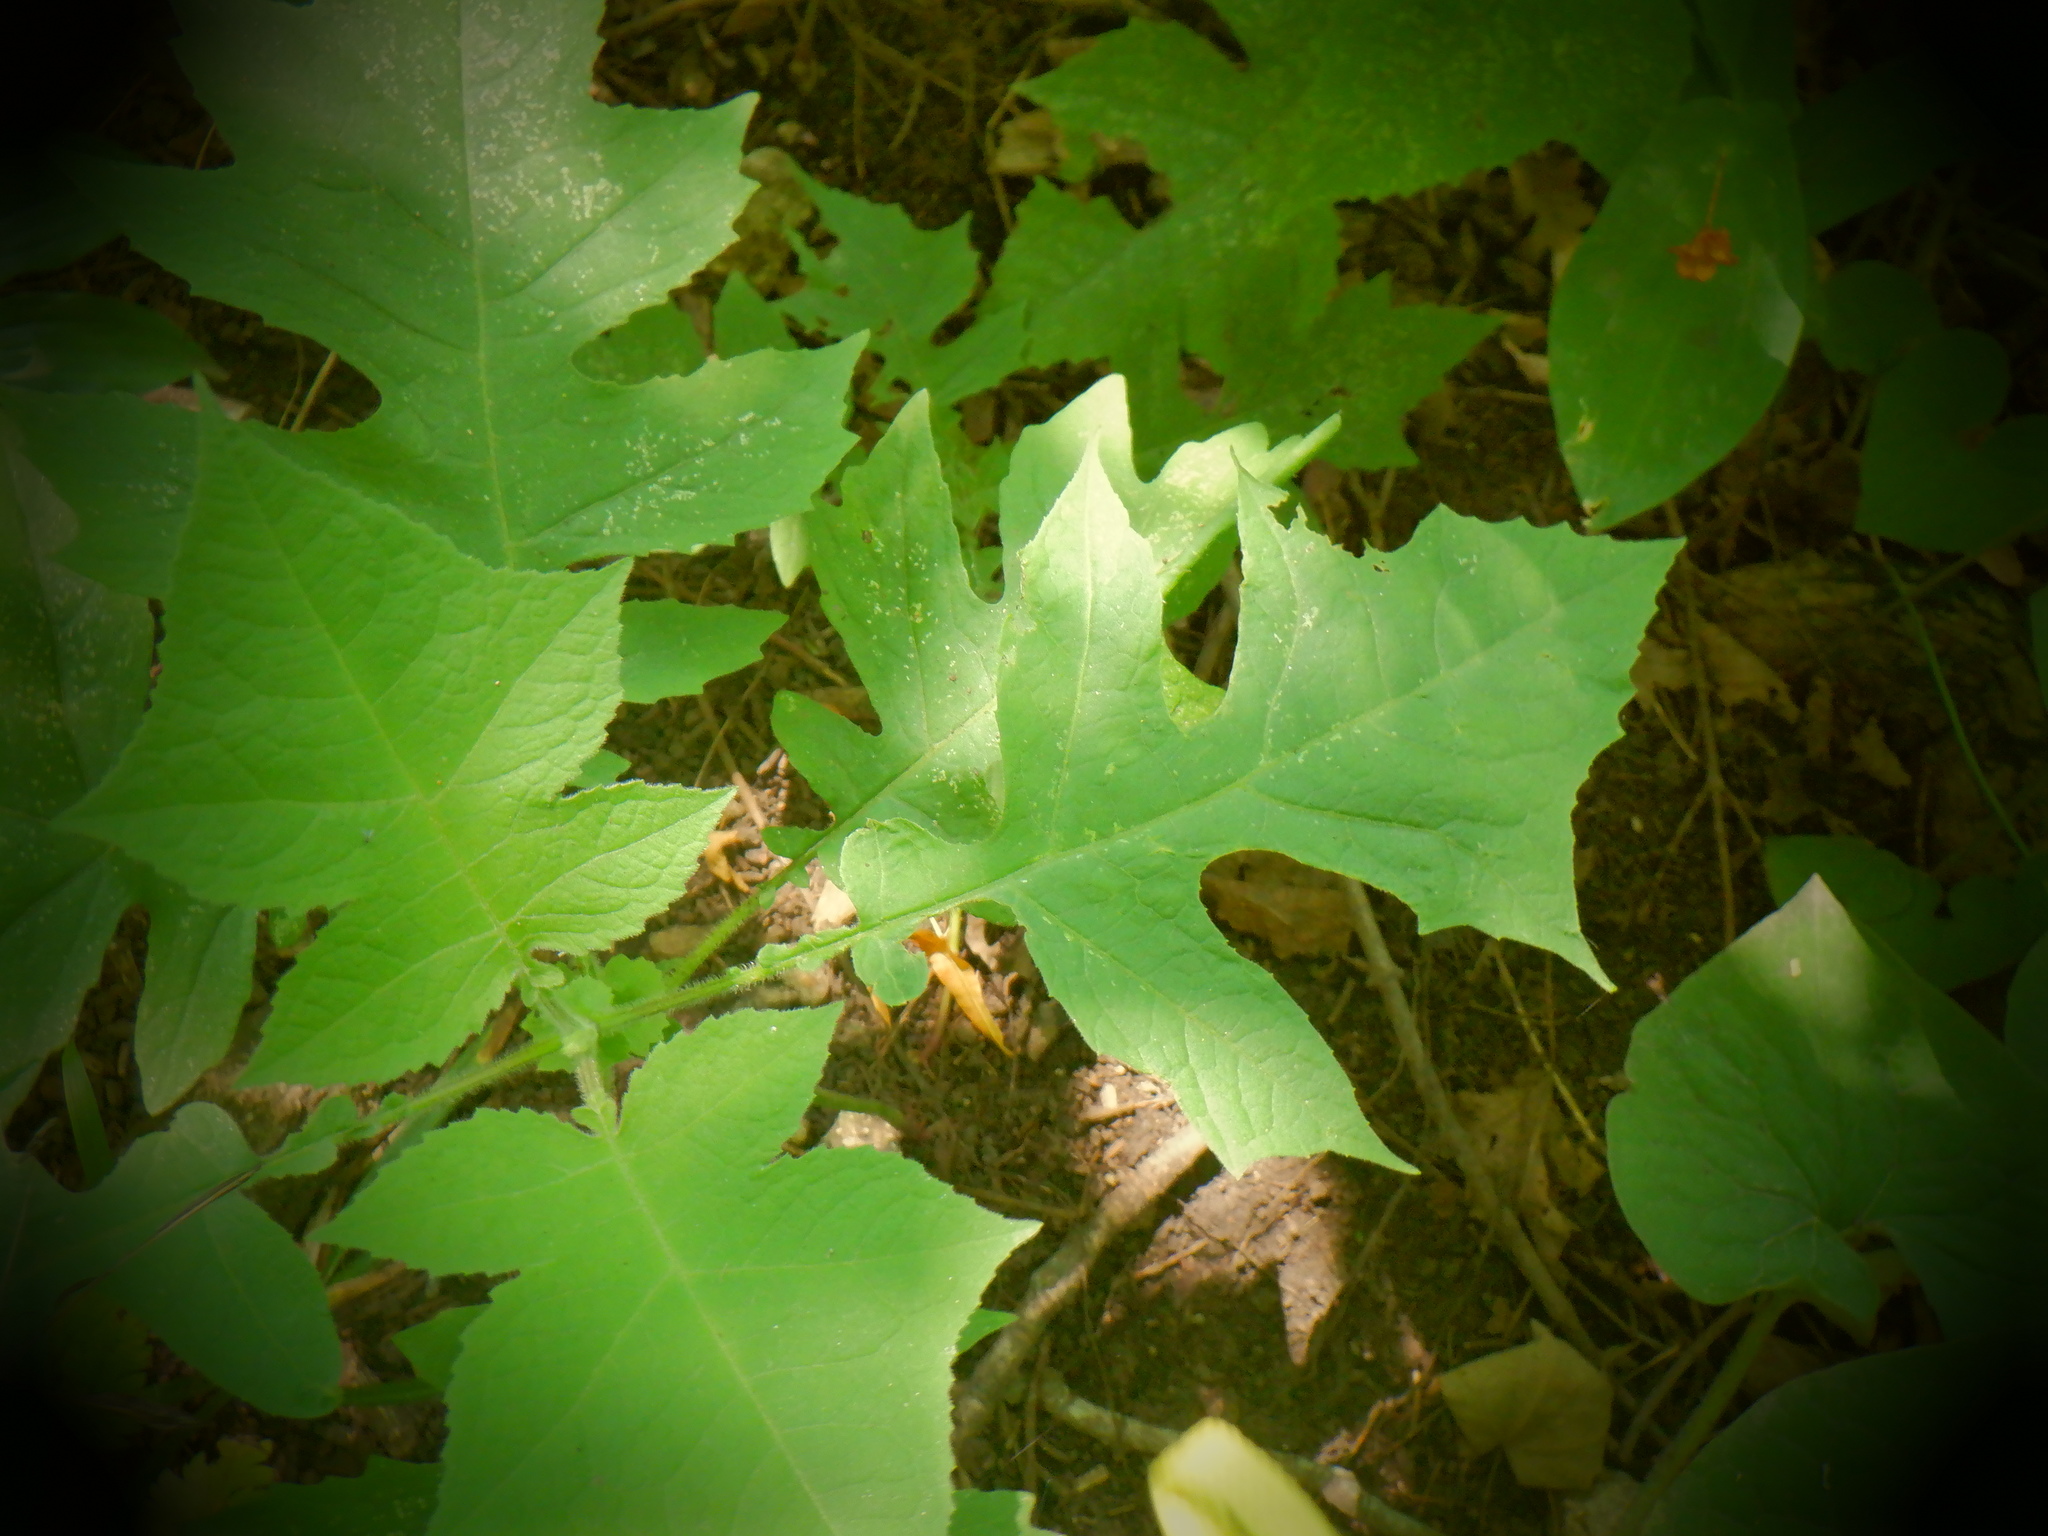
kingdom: Plantae
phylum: Tracheophyta
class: Magnoliopsida
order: Asterales
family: Asteraceae
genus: Polymnia
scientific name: Polymnia canadensis
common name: Pale-flowered leafcup
